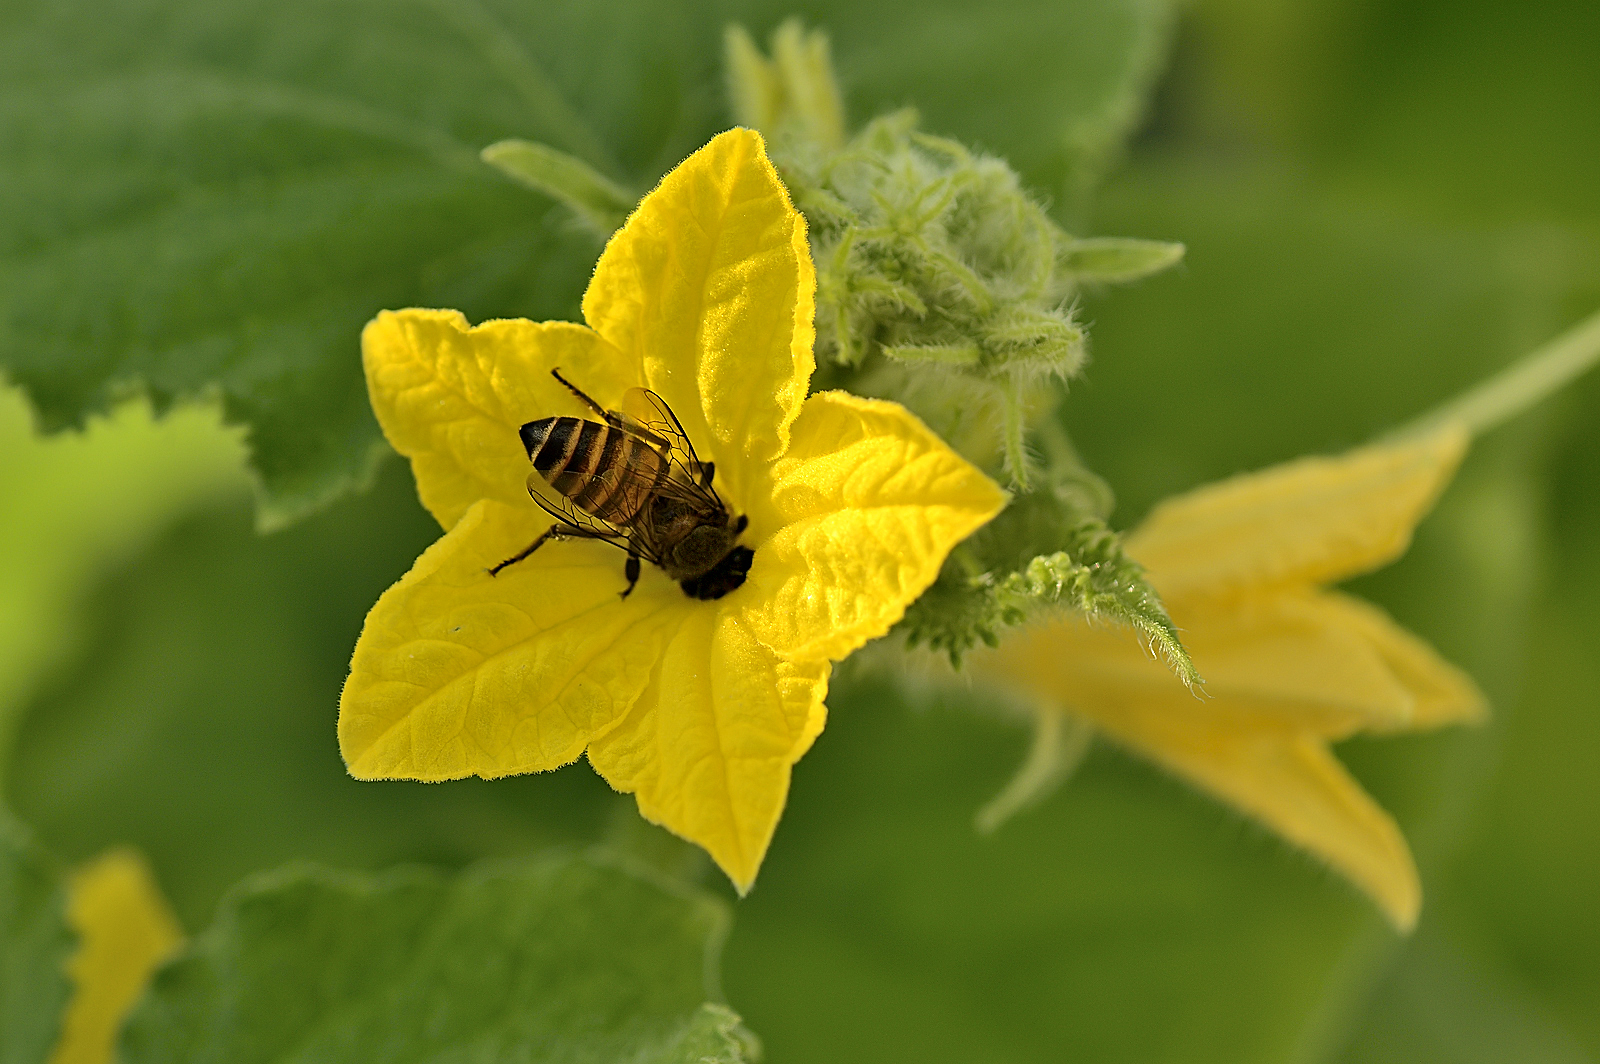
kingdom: Animalia
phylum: Arthropoda
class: Insecta
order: Hymenoptera
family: Apidae
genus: Apis
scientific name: Apis cerana
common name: Honey bee
